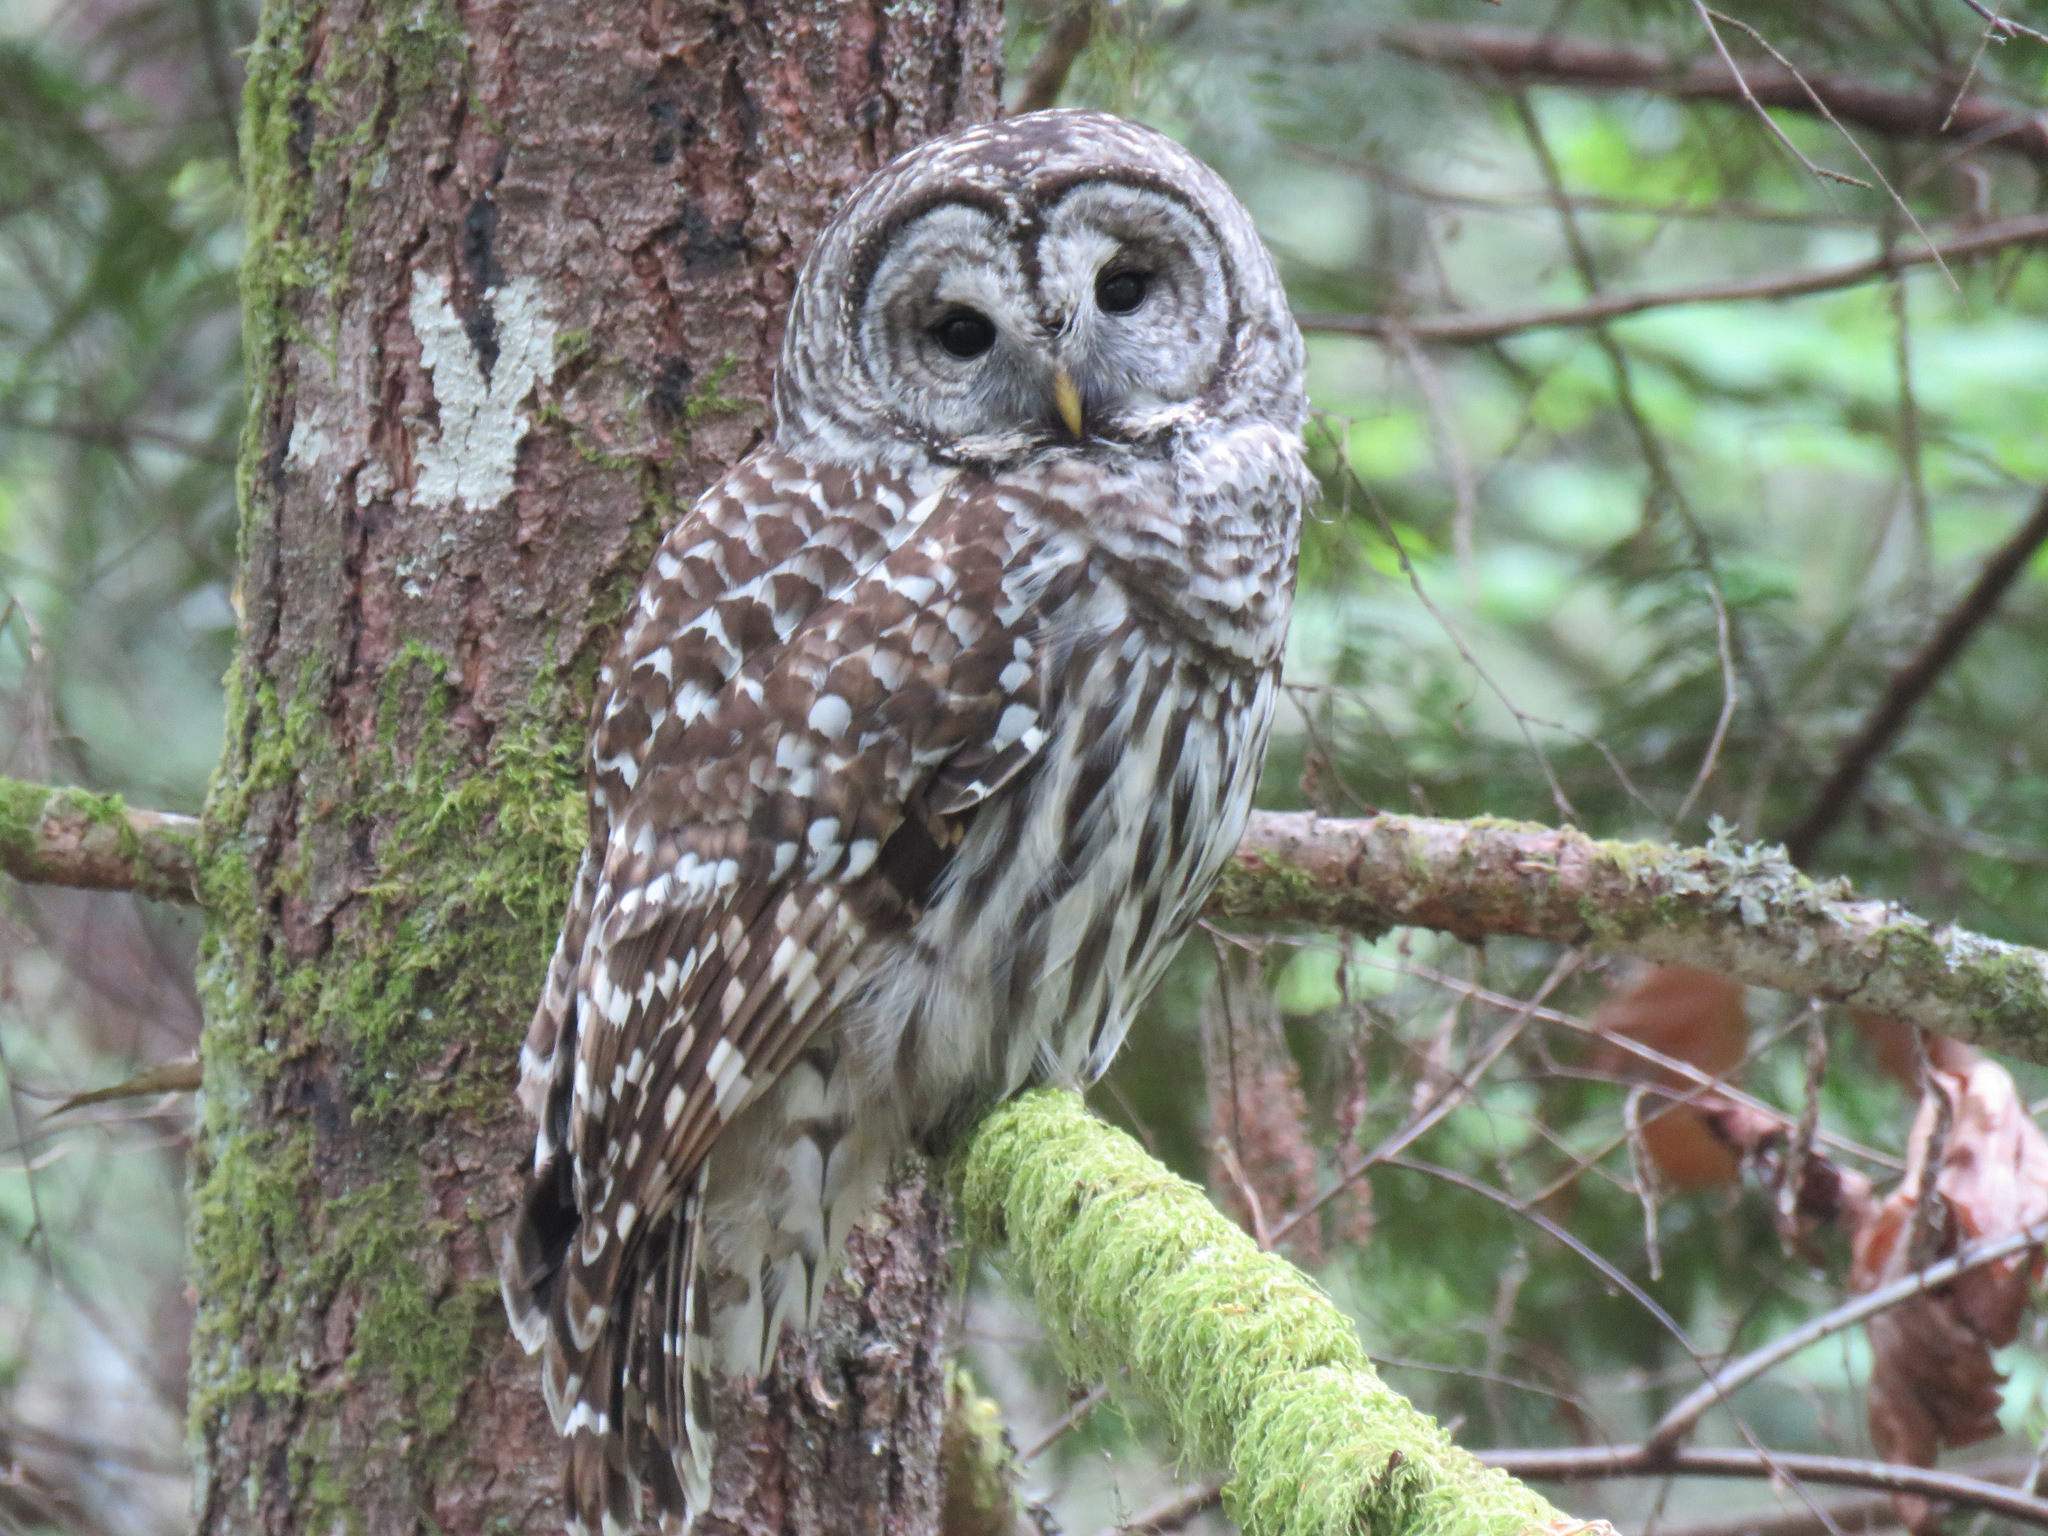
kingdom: Animalia
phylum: Chordata
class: Aves
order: Strigiformes
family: Strigidae
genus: Strix
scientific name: Strix varia
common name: Barred owl
